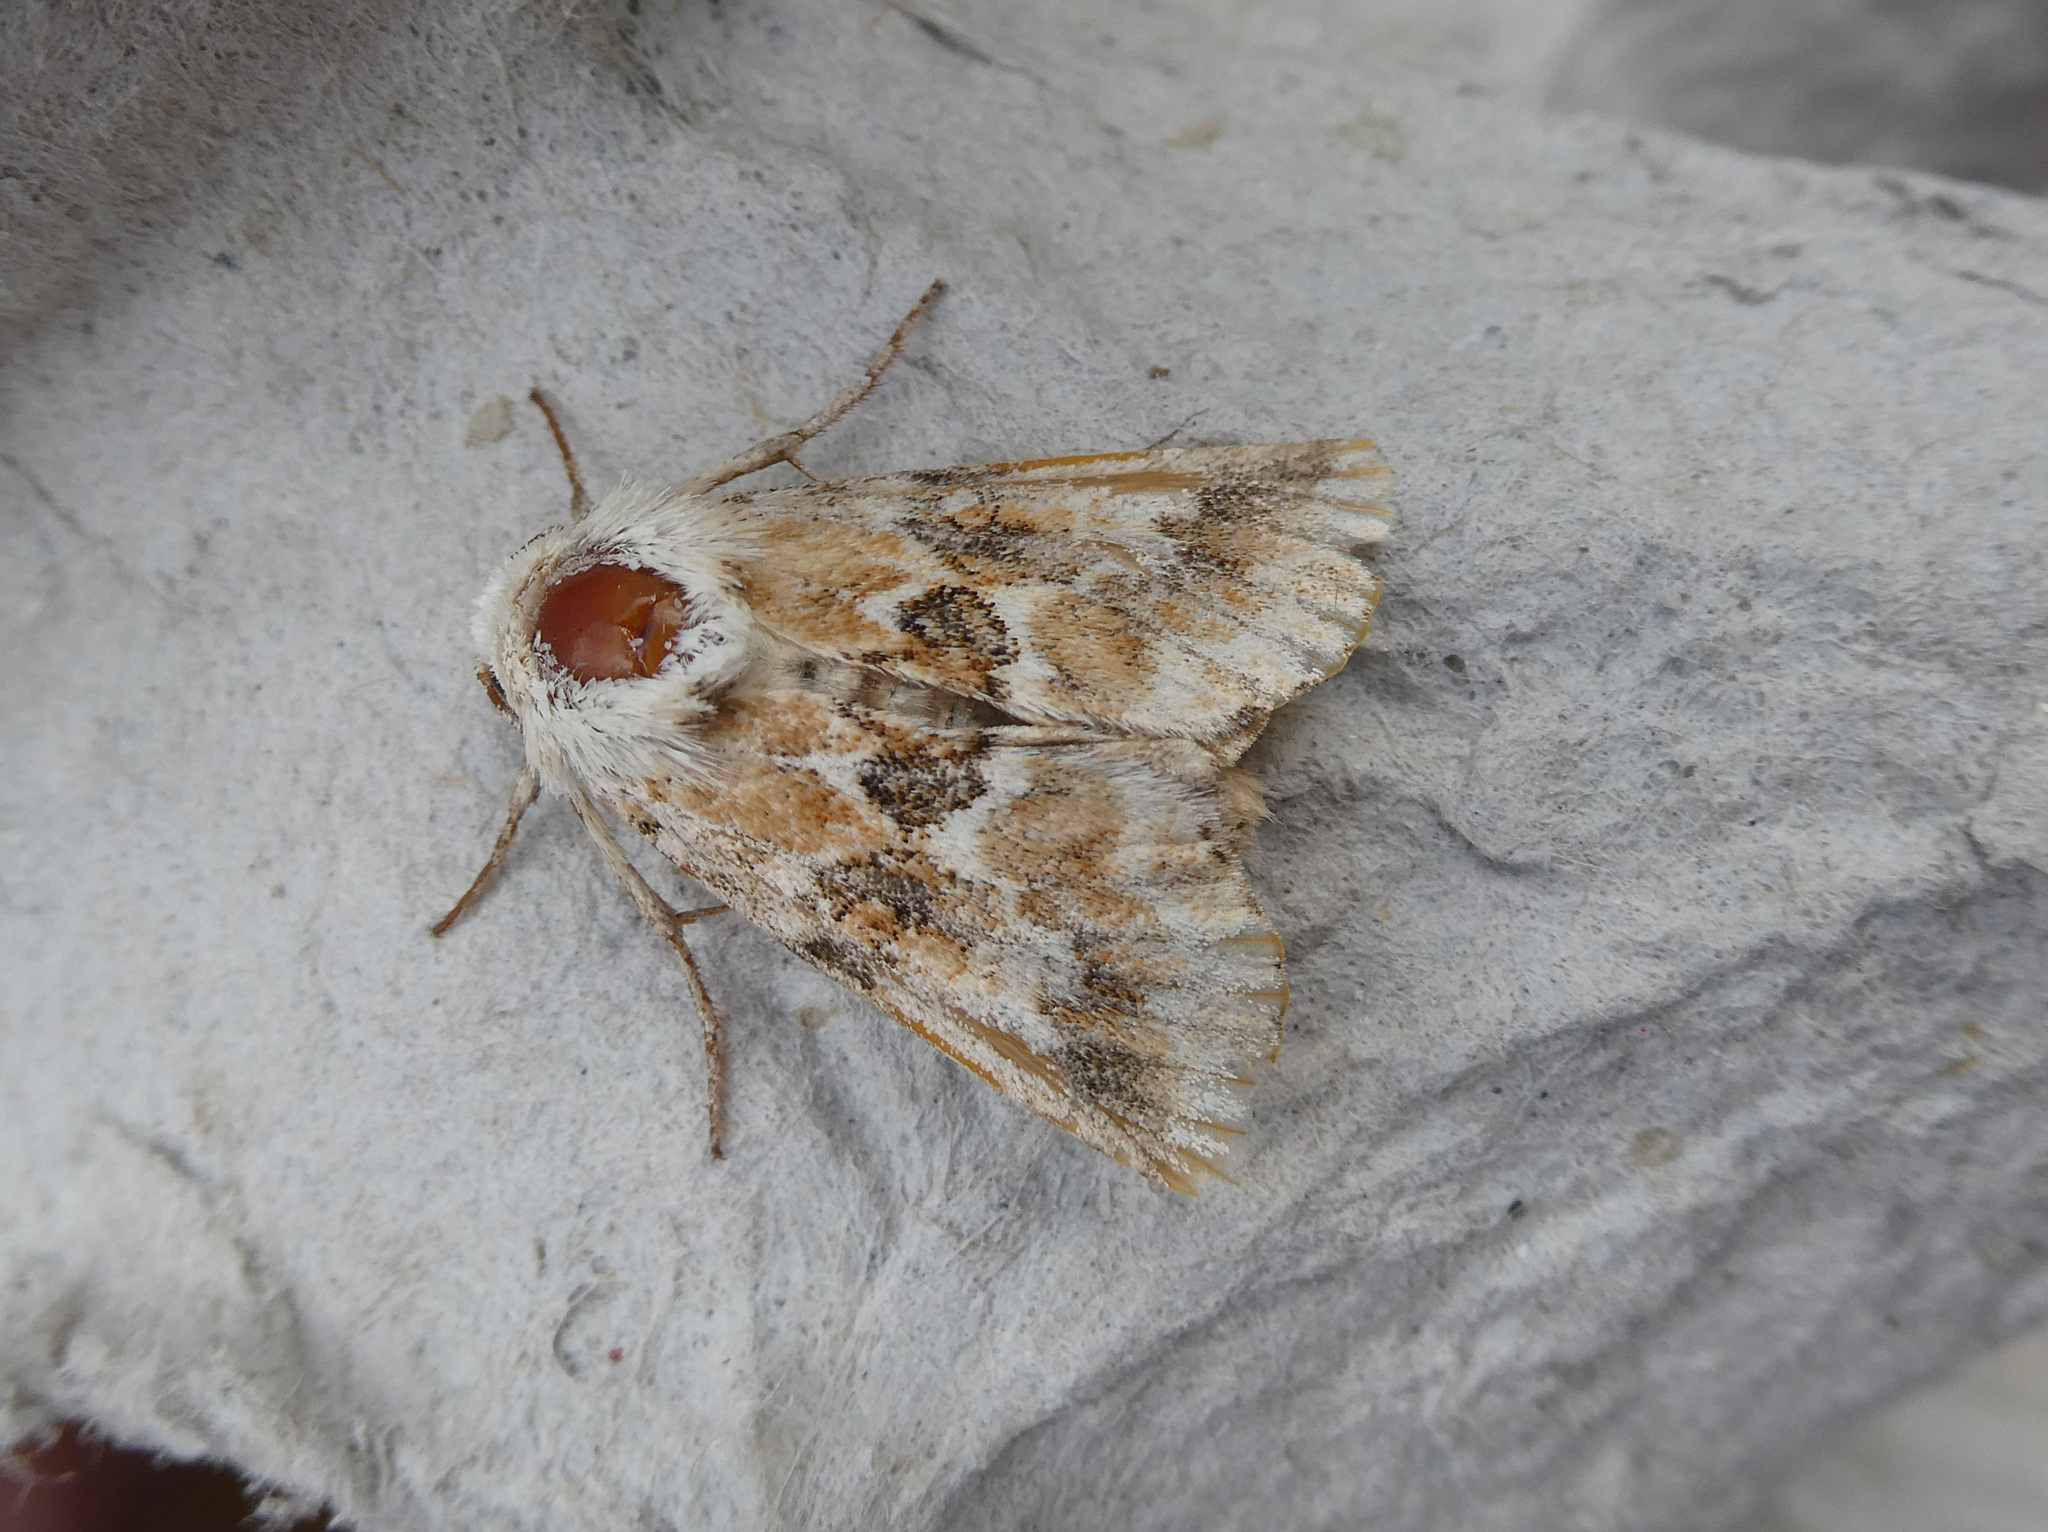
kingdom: Animalia
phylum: Arthropoda
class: Insecta
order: Lepidoptera
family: Noctuidae
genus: Eremobia
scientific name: Eremobia ochroleuca
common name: Dusky sallow
